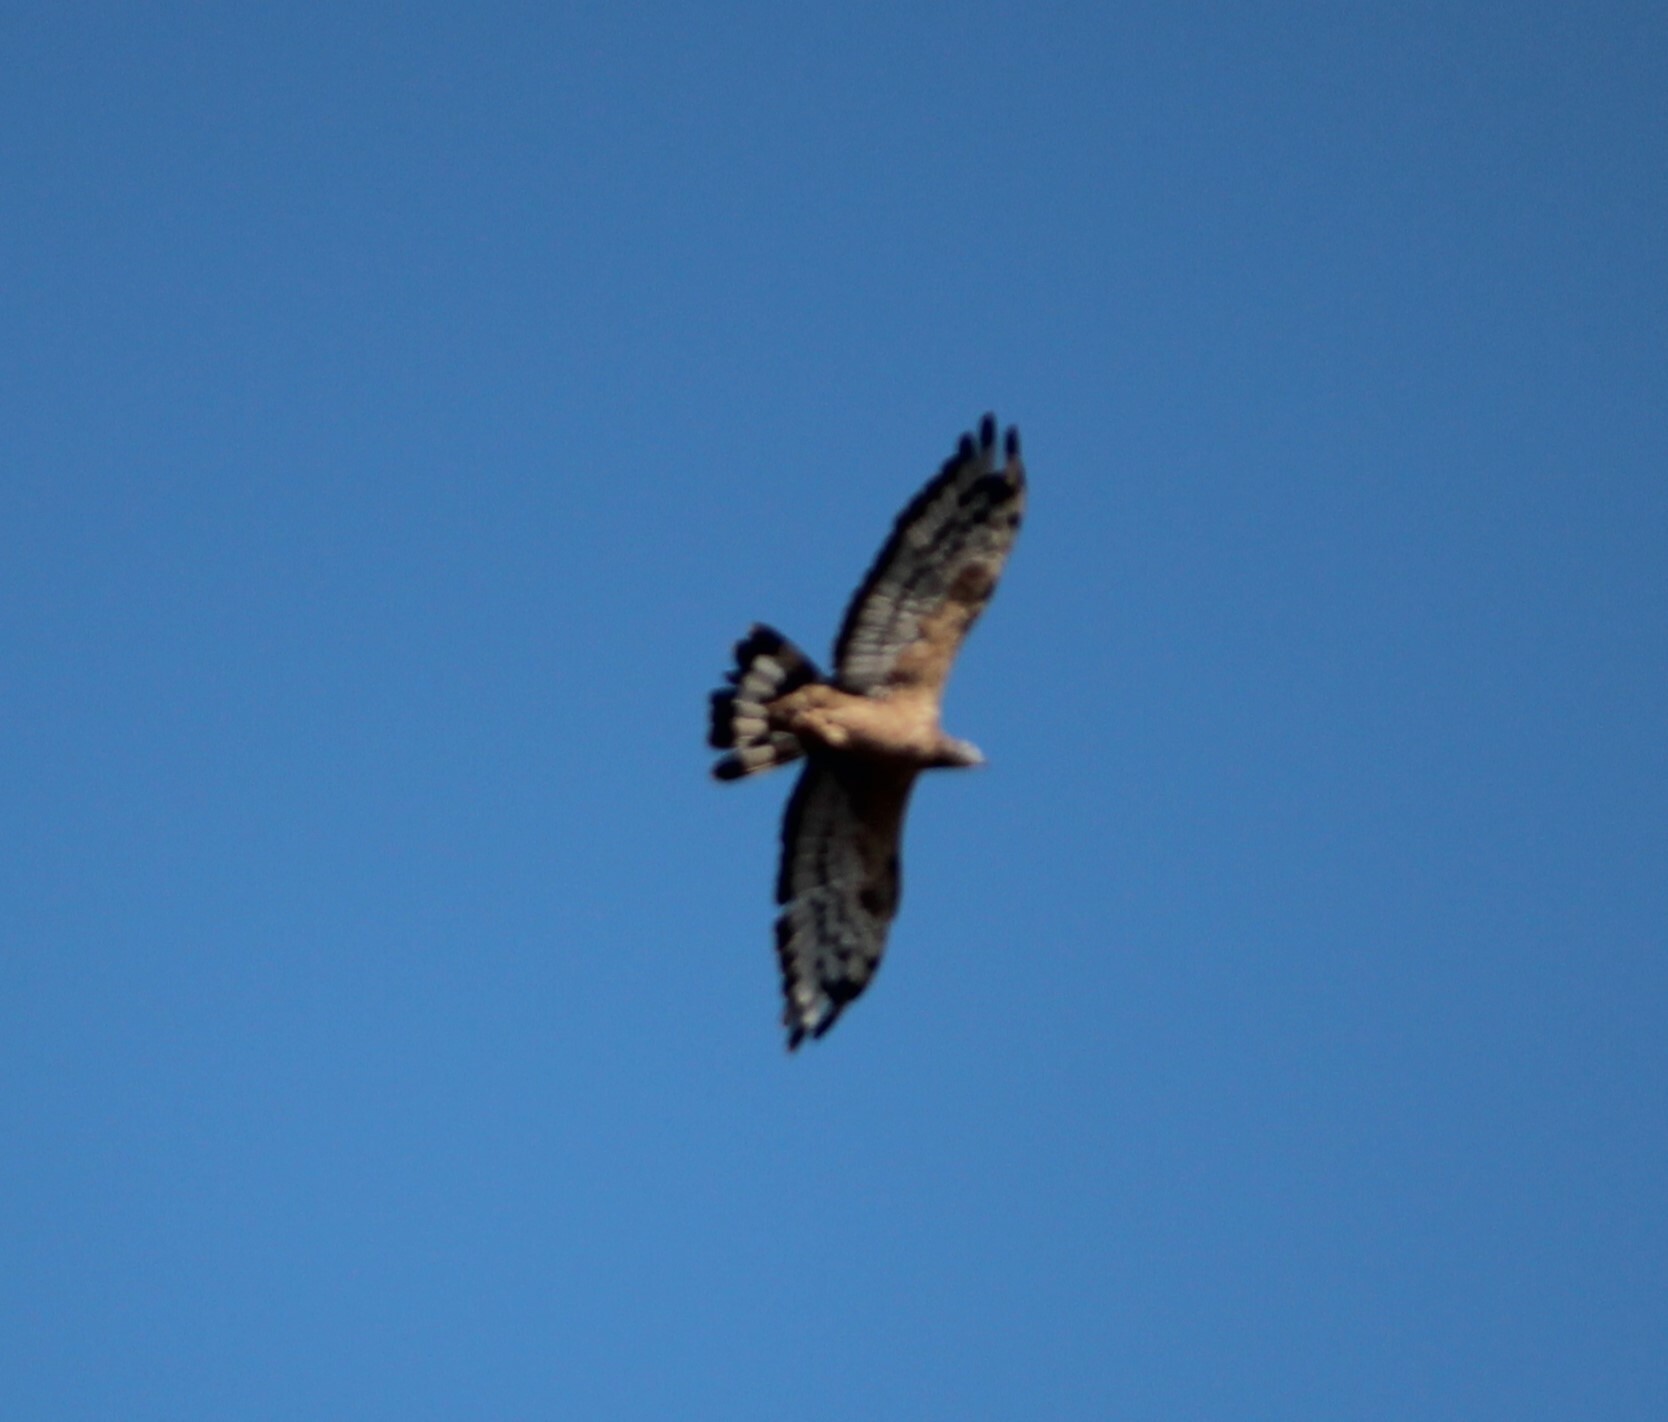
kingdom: Animalia
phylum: Chordata
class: Aves
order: Accipitriformes
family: Accipitridae
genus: Pernis
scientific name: Pernis ptilorhynchus
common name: Crested honey buzzard
